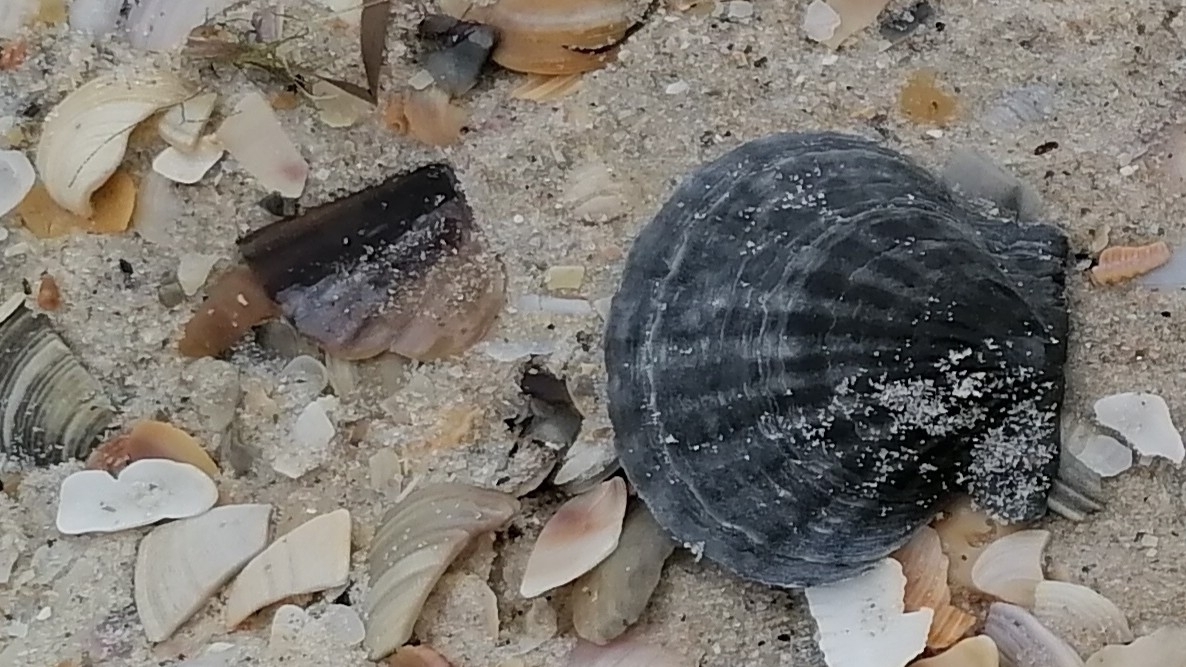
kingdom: Animalia
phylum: Mollusca
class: Bivalvia
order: Pectinida
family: Pectinidae
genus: Flexopecten
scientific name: Flexopecten glaber
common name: Smooth scallop
